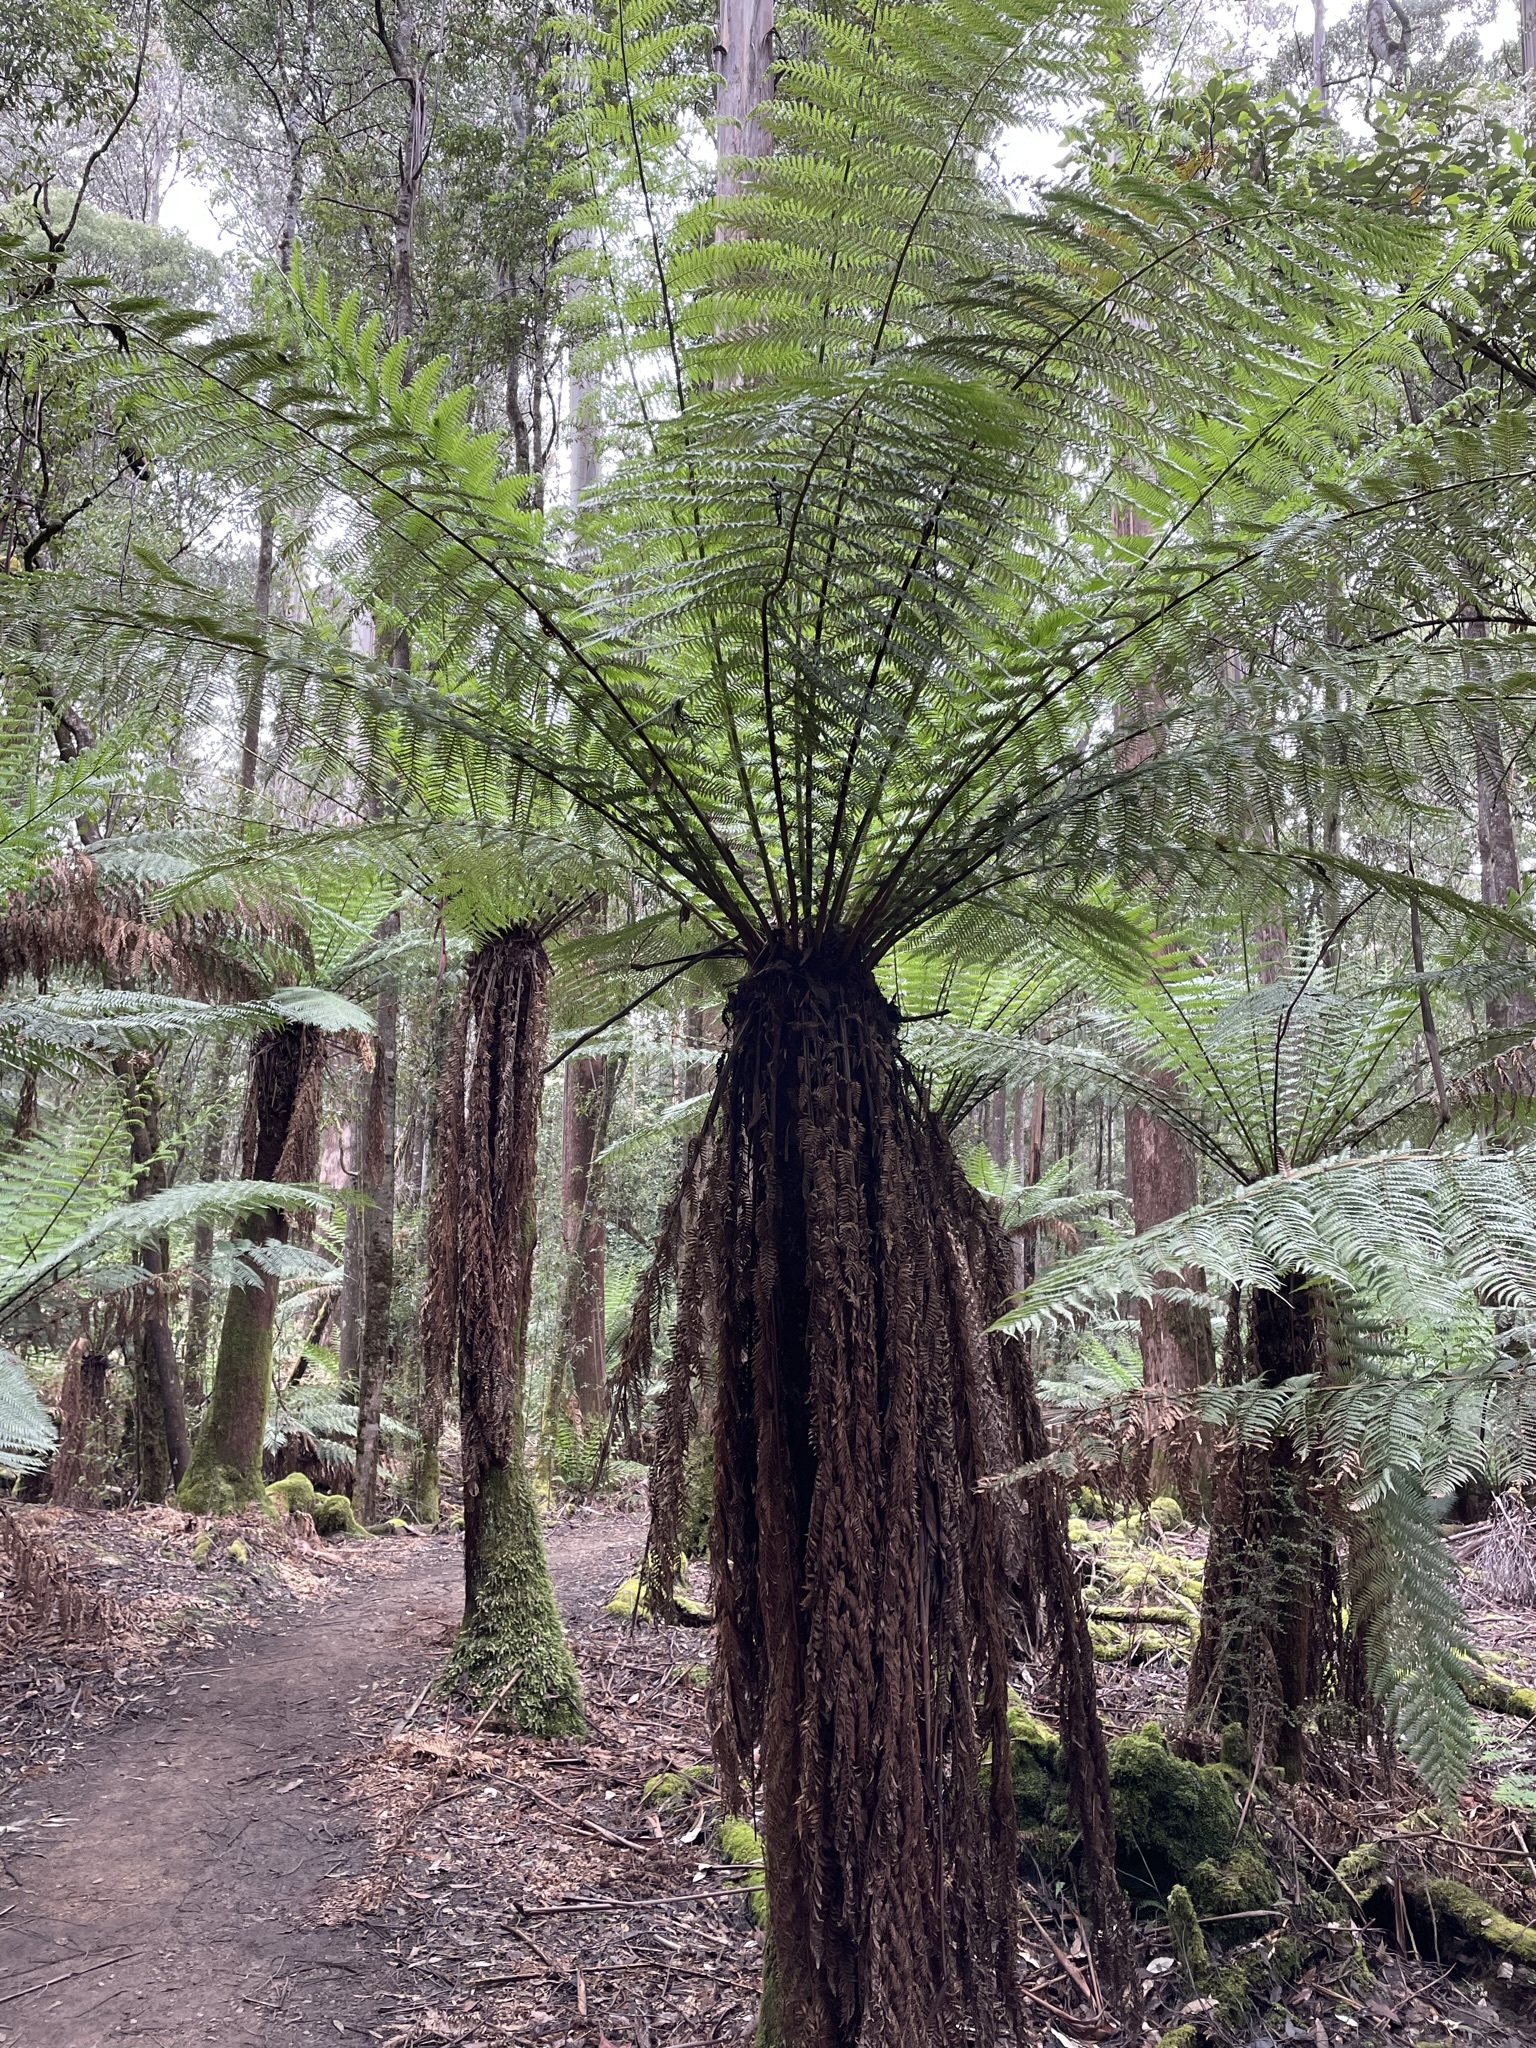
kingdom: Plantae
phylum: Tracheophyta
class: Polypodiopsida
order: Cyatheales
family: Dicksoniaceae
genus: Dicksonia
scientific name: Dicksonia antarctica
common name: Australian treefern
